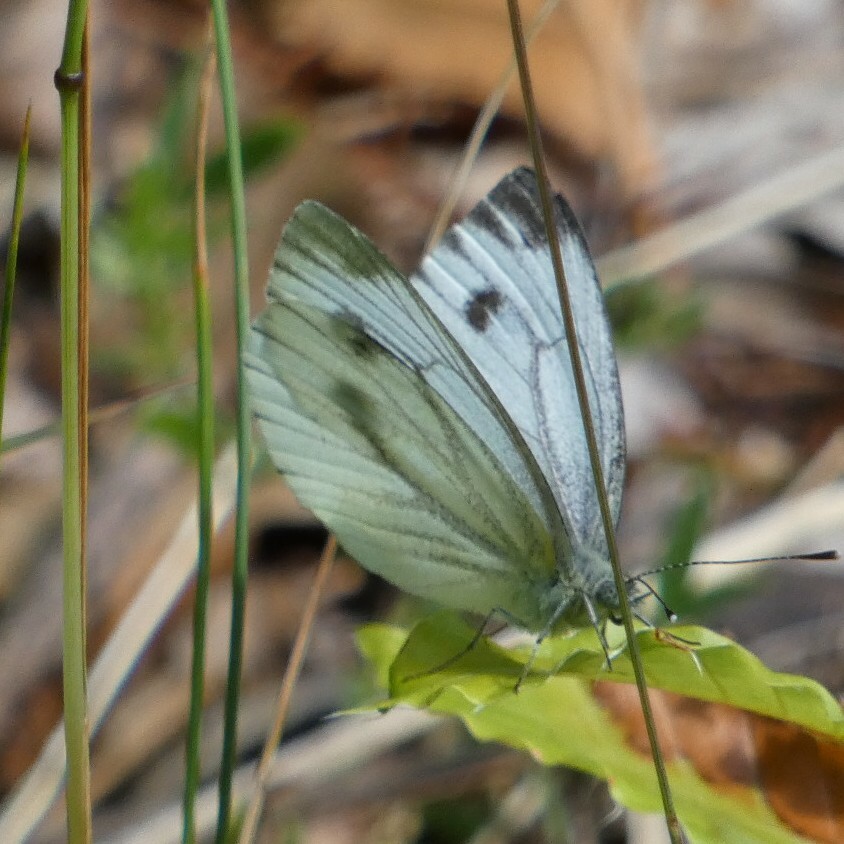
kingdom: Animalia
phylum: Arthropoda
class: Insecta
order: Lepidoptera
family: Pieridae
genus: Pieris
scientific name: Pieris napi
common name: Green-veined white
